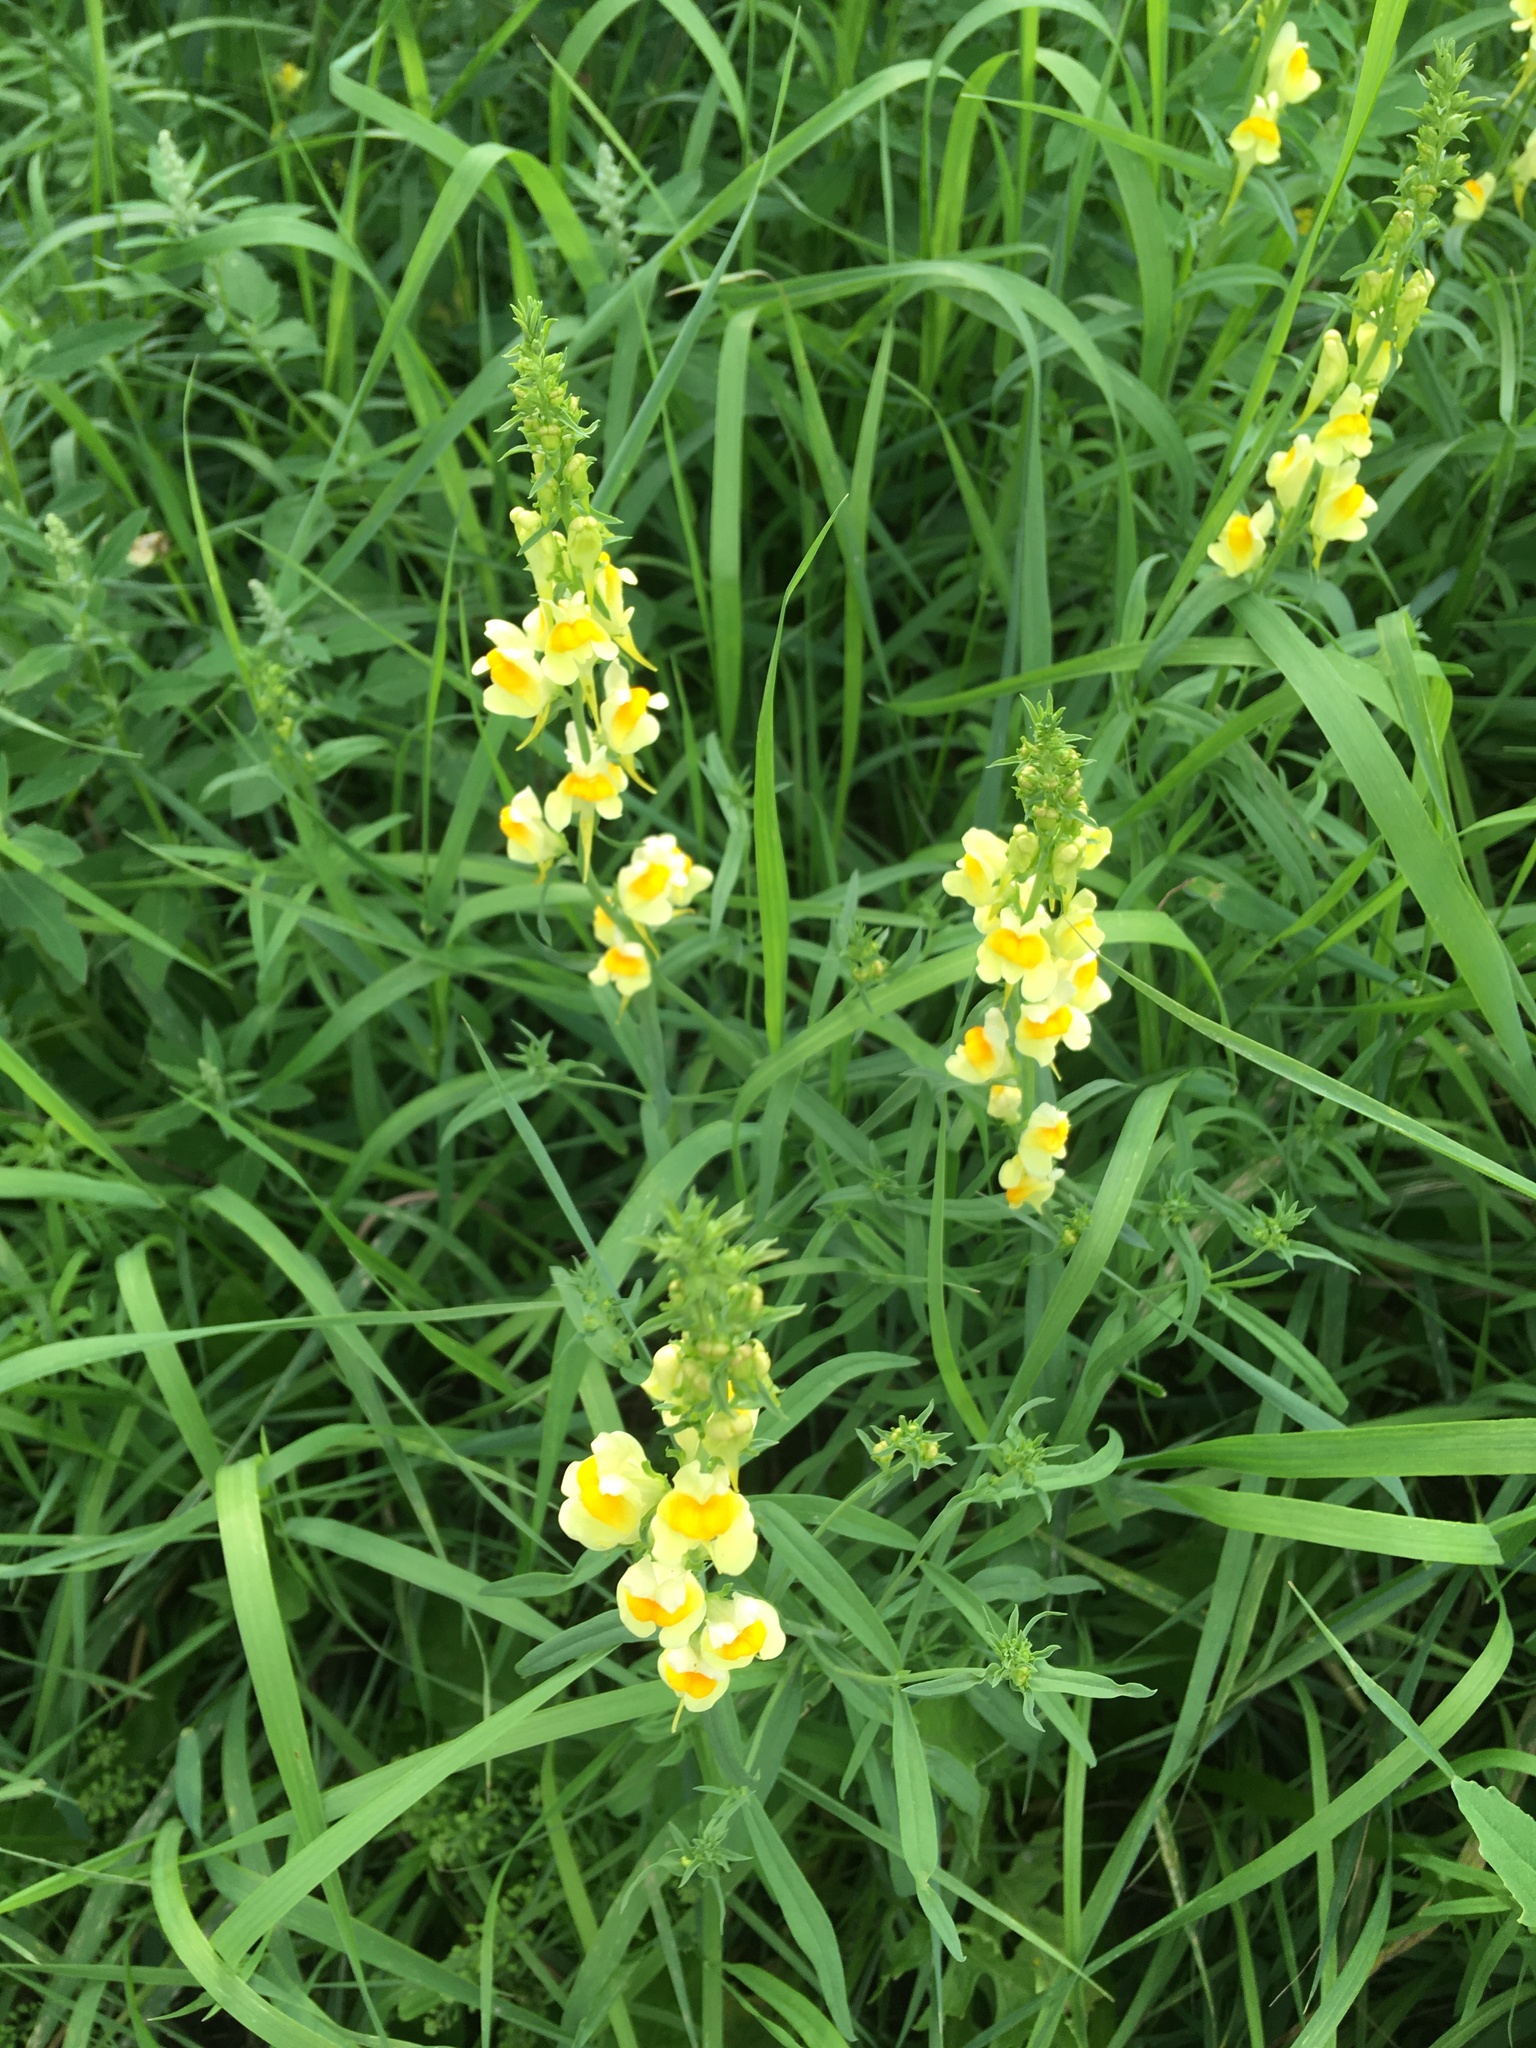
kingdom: Plantae
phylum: Tracheophyta
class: Magnoliopsida
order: Lamiales
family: Plantaginaceae
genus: Linaria
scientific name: Linaria vulgaris
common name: Butter and eggs
